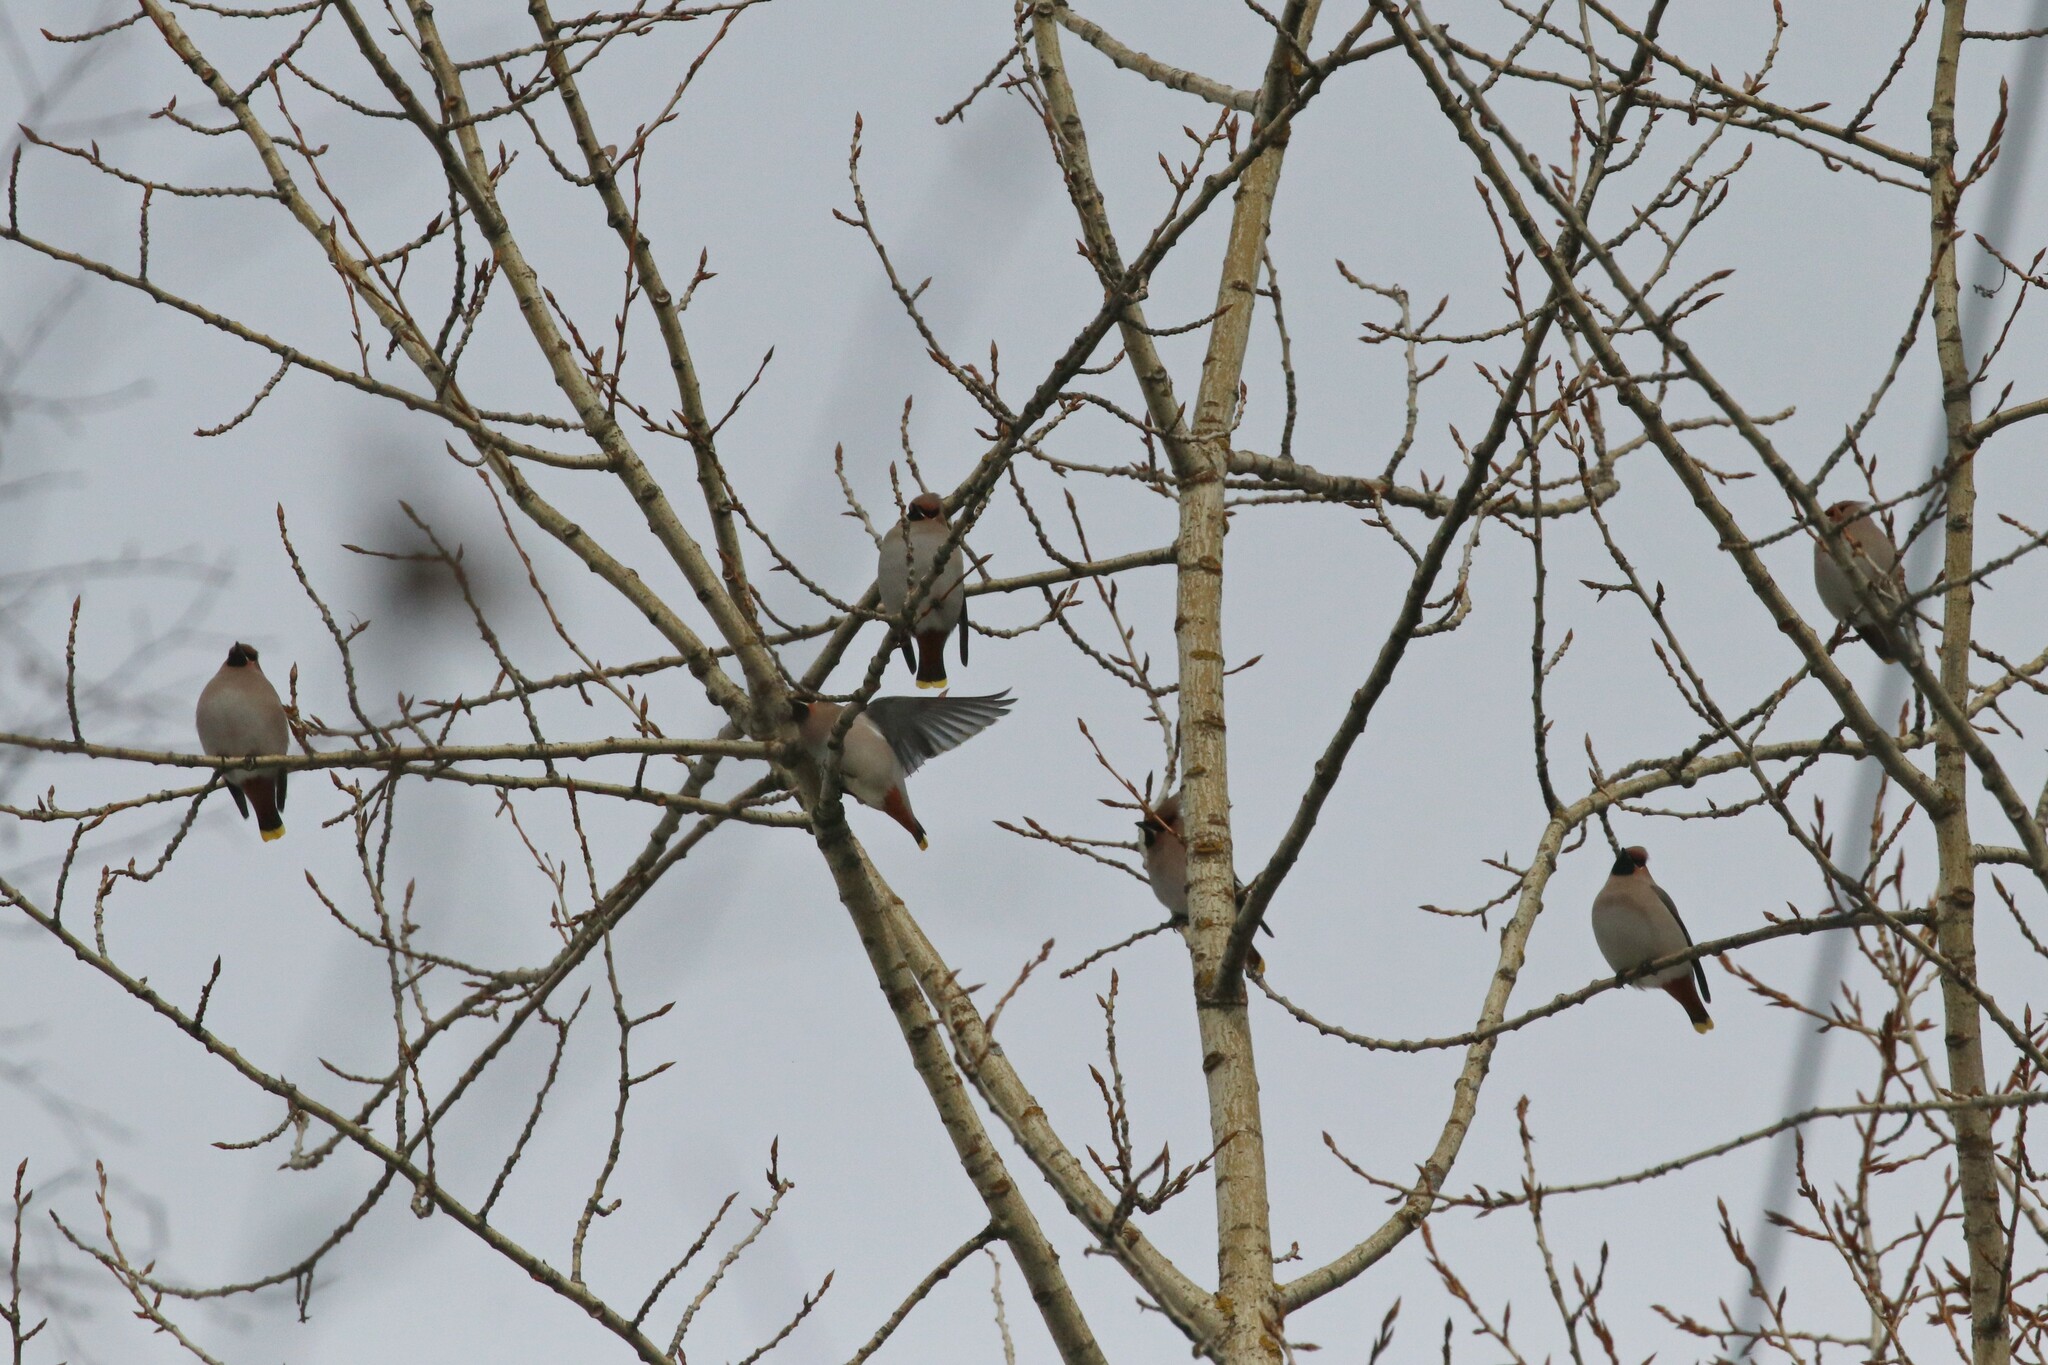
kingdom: Animalia
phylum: Chordata
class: Aves
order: Passeriformes
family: Bombycillidae
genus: Bombycilla
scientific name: Bombycilla garrulus
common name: Bohemian waxwing
